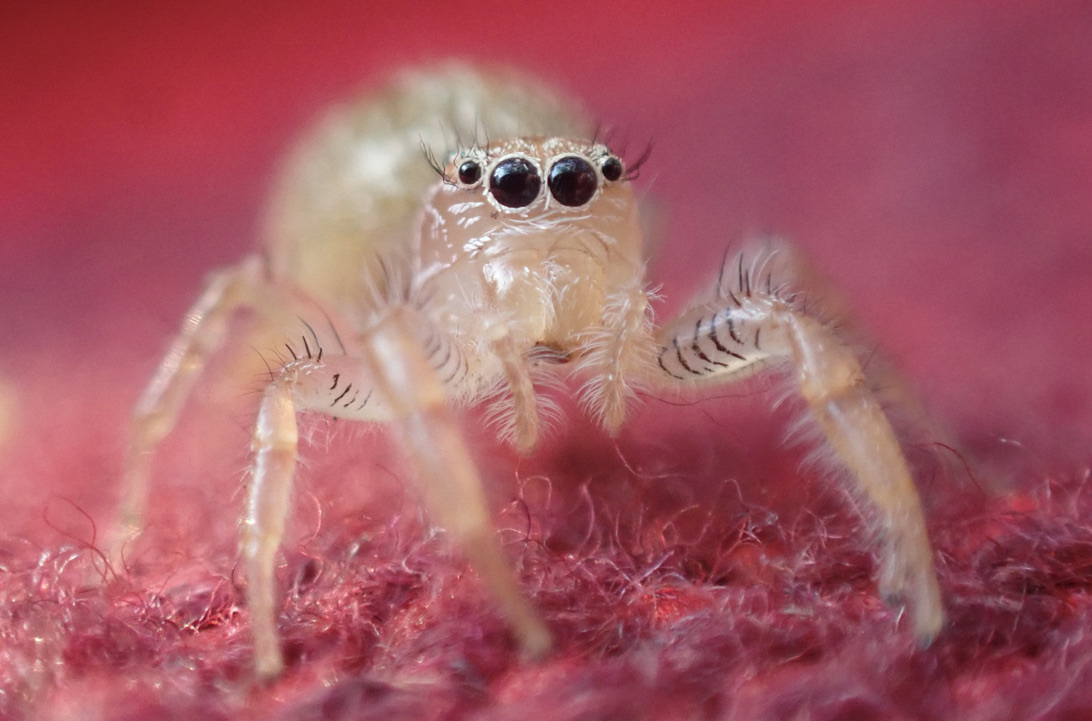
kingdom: Animalia
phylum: Arthropoda
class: Arachnida
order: Araneae
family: Salticidae
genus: Thyene
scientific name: Thyene ogdeni
